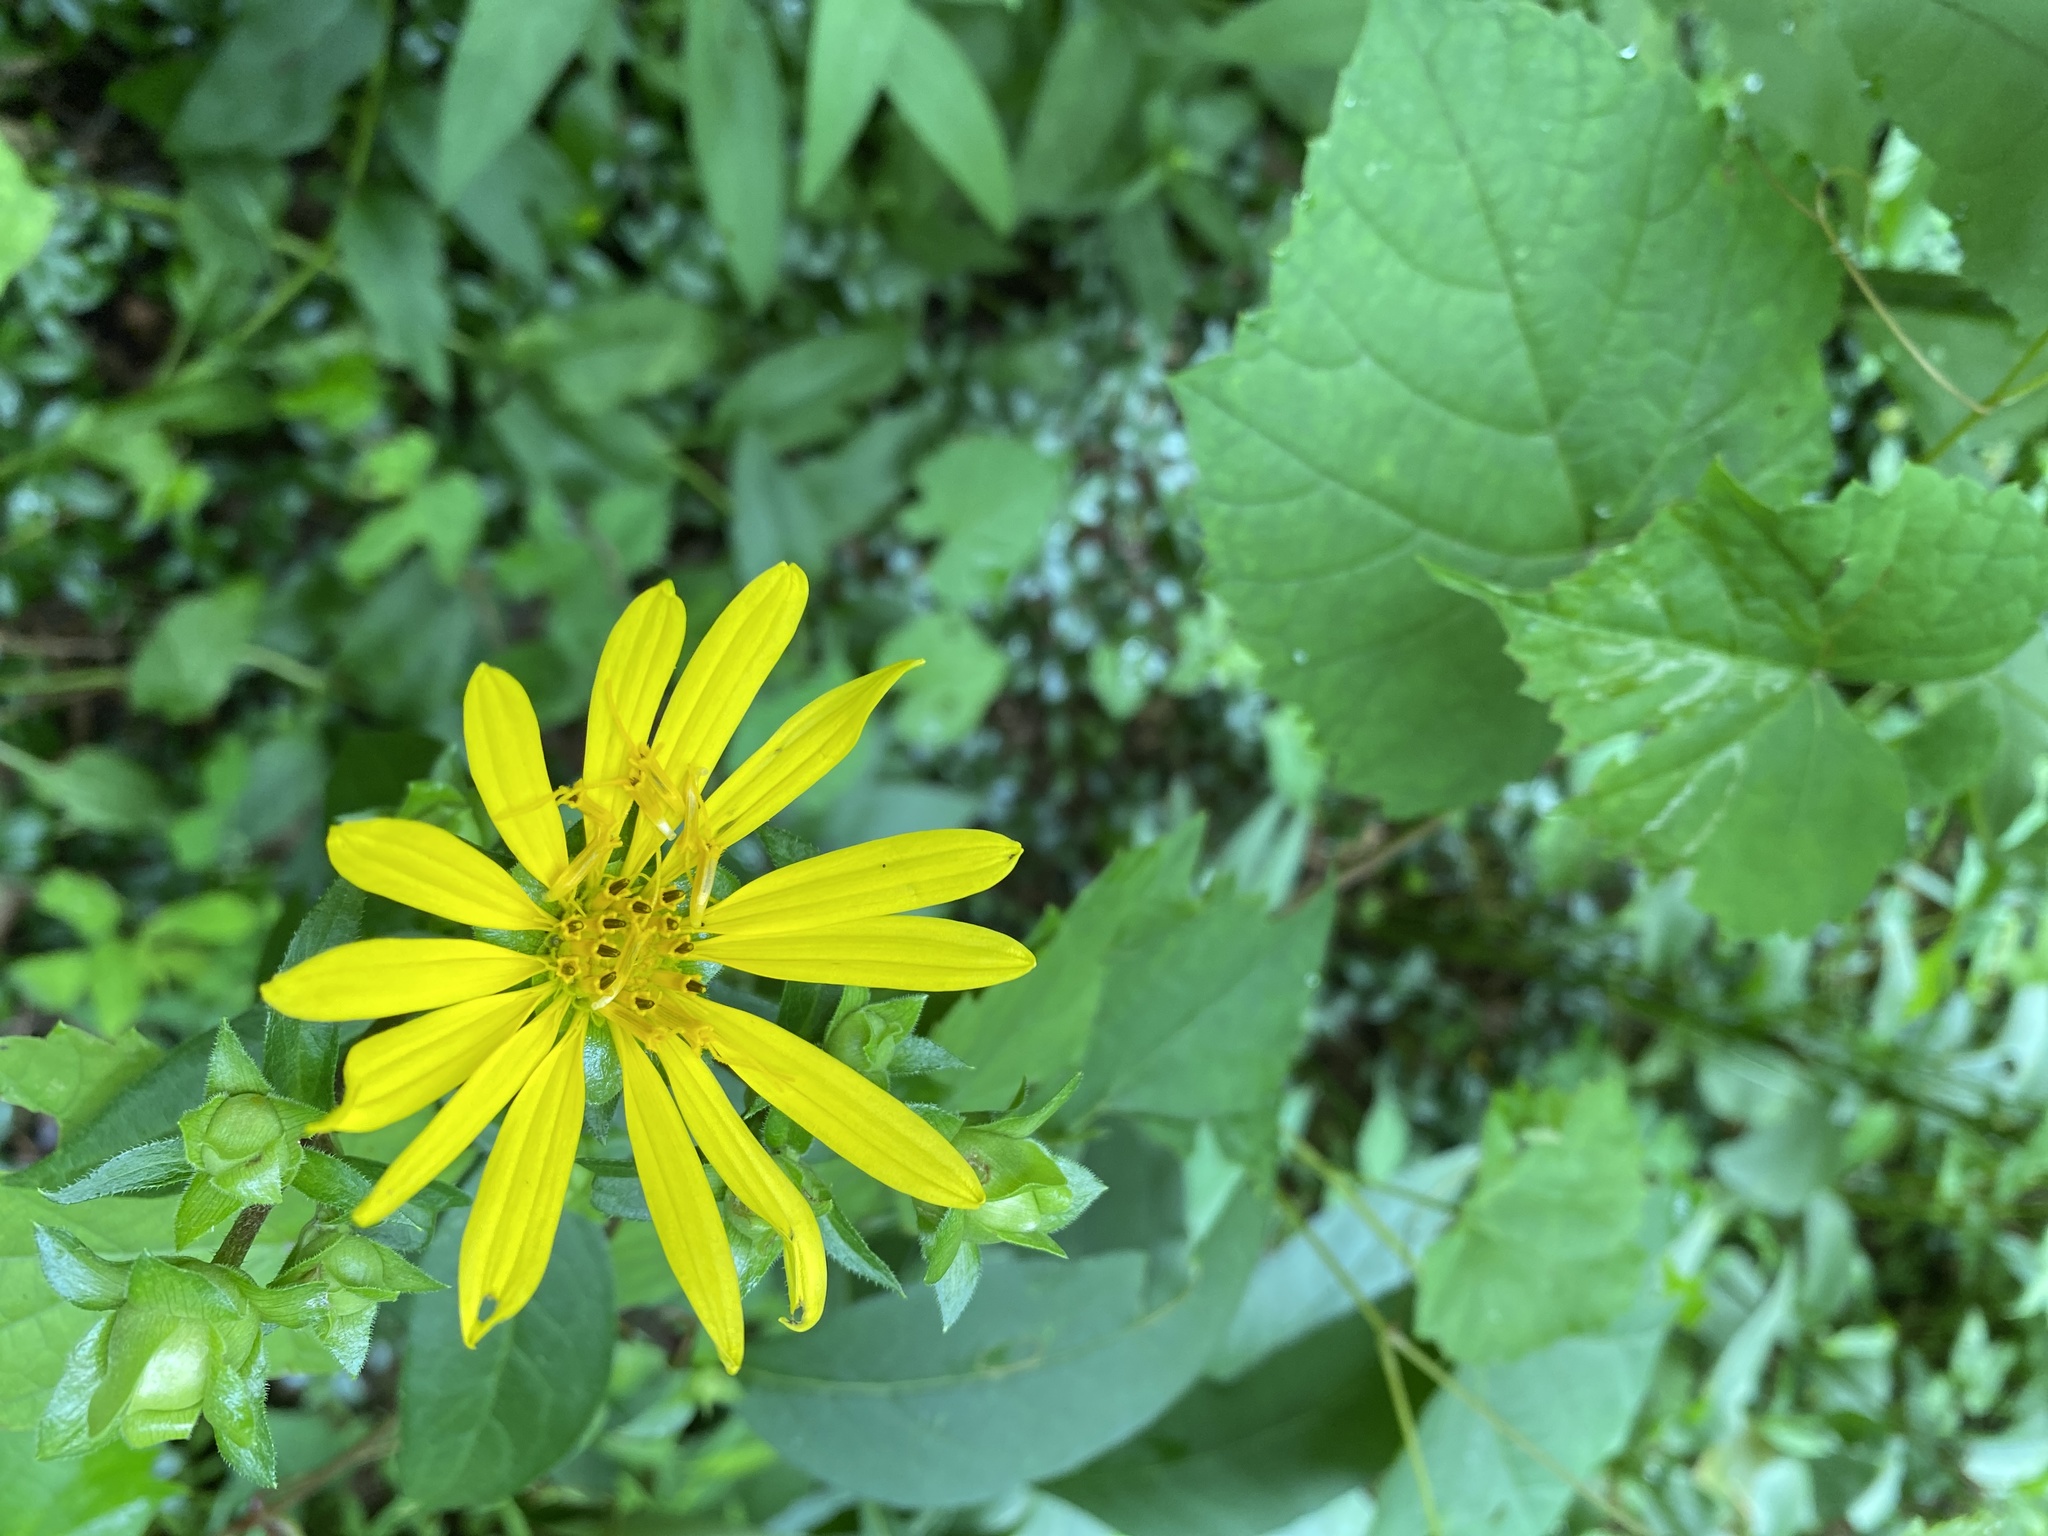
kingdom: Plantae
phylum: Tracheophyta
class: Magnoliopsida
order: Asterales
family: Asteraceae
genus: Silphium
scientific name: Silphium asteriscus
